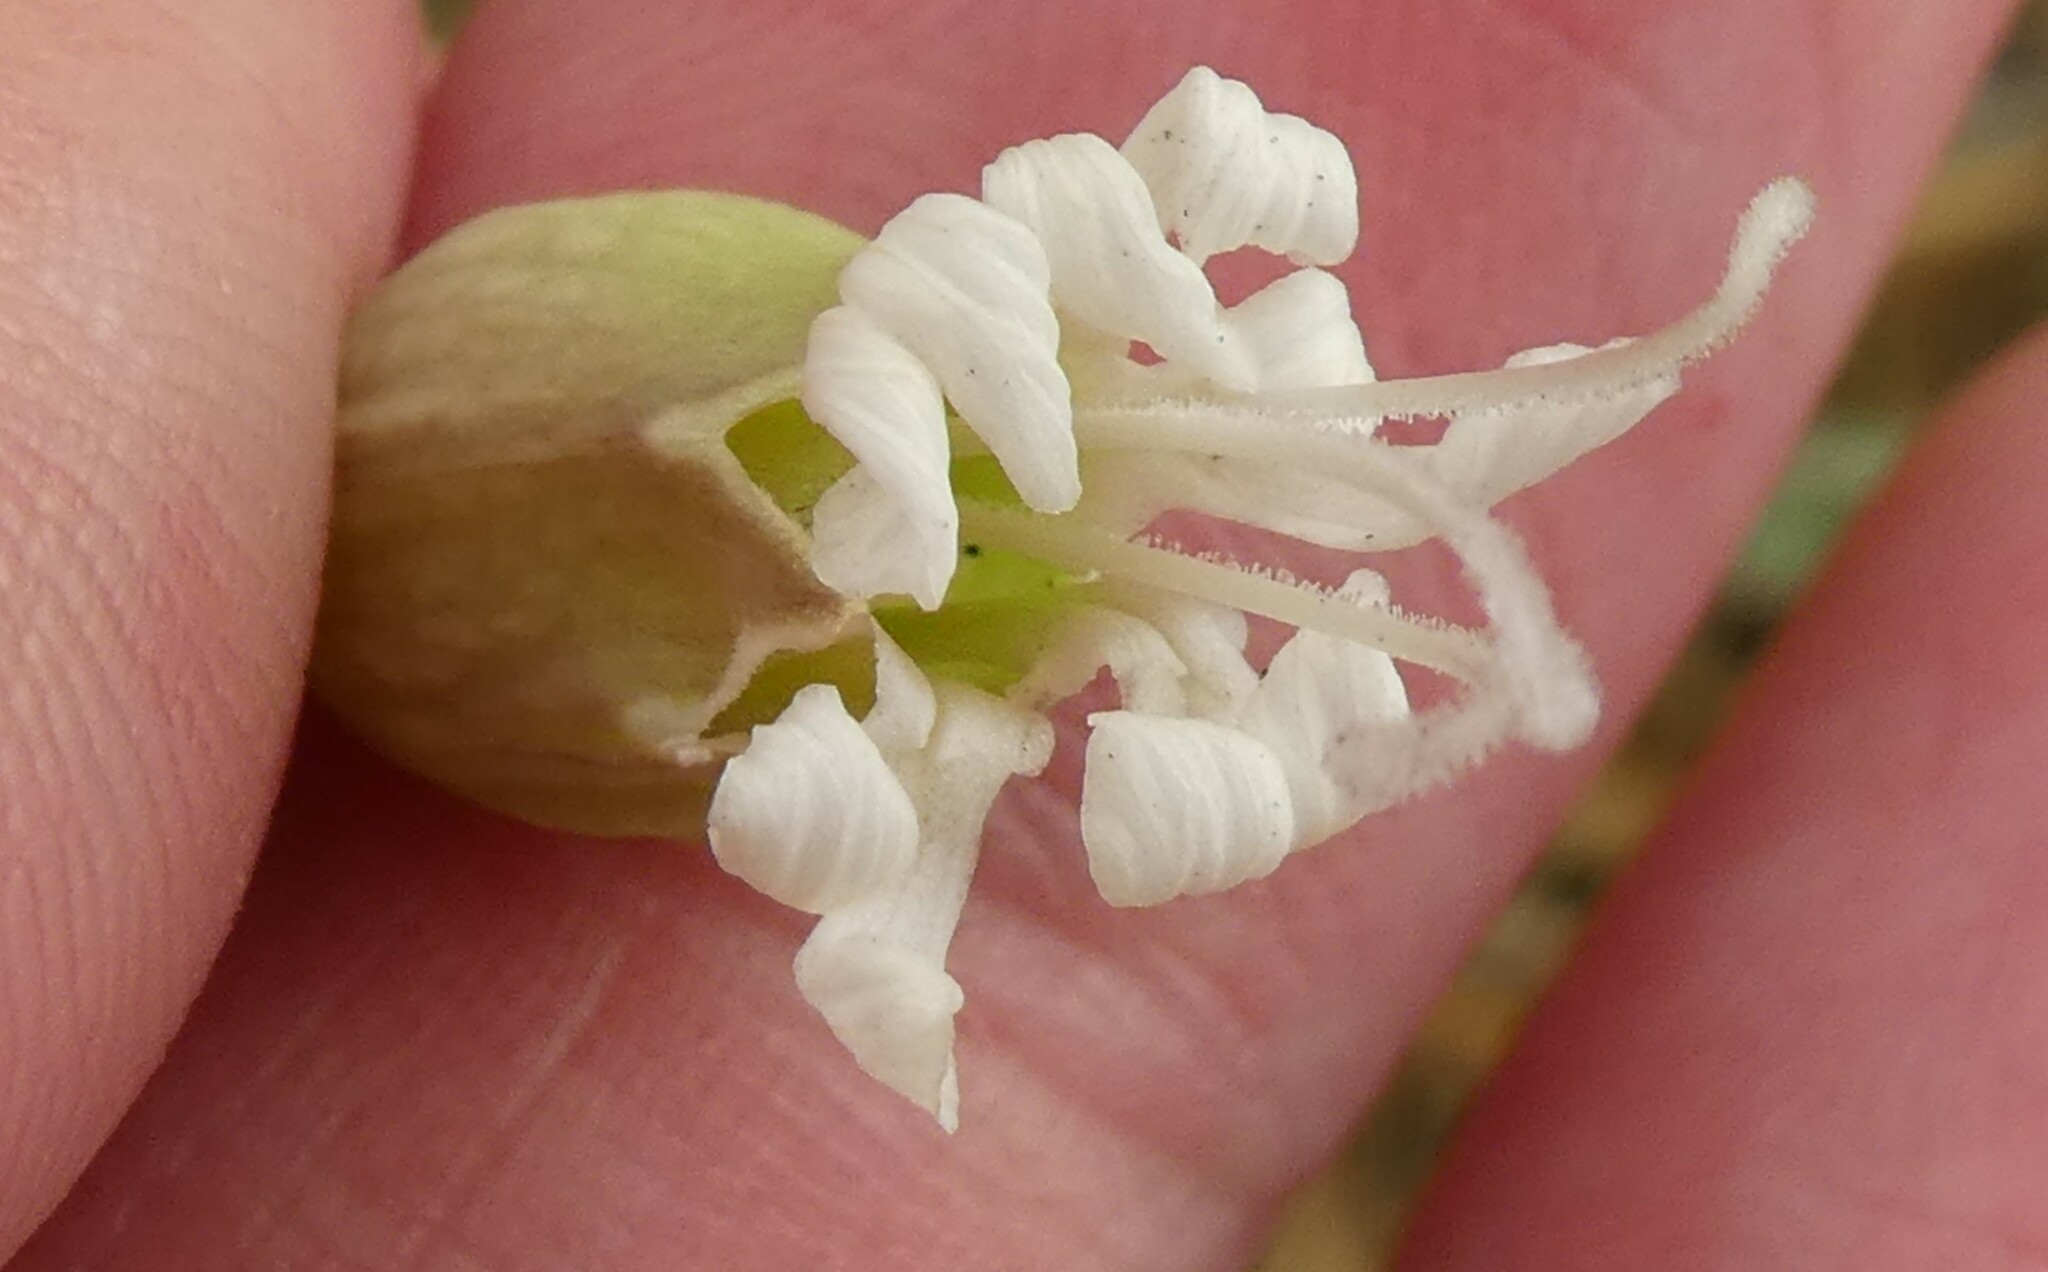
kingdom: Plantae
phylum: Tracheophyta
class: Magnoliopsida
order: Caryophyllales
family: Caryophyllaceae
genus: Silene
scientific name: Silene vulgaris
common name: Bladder campion
